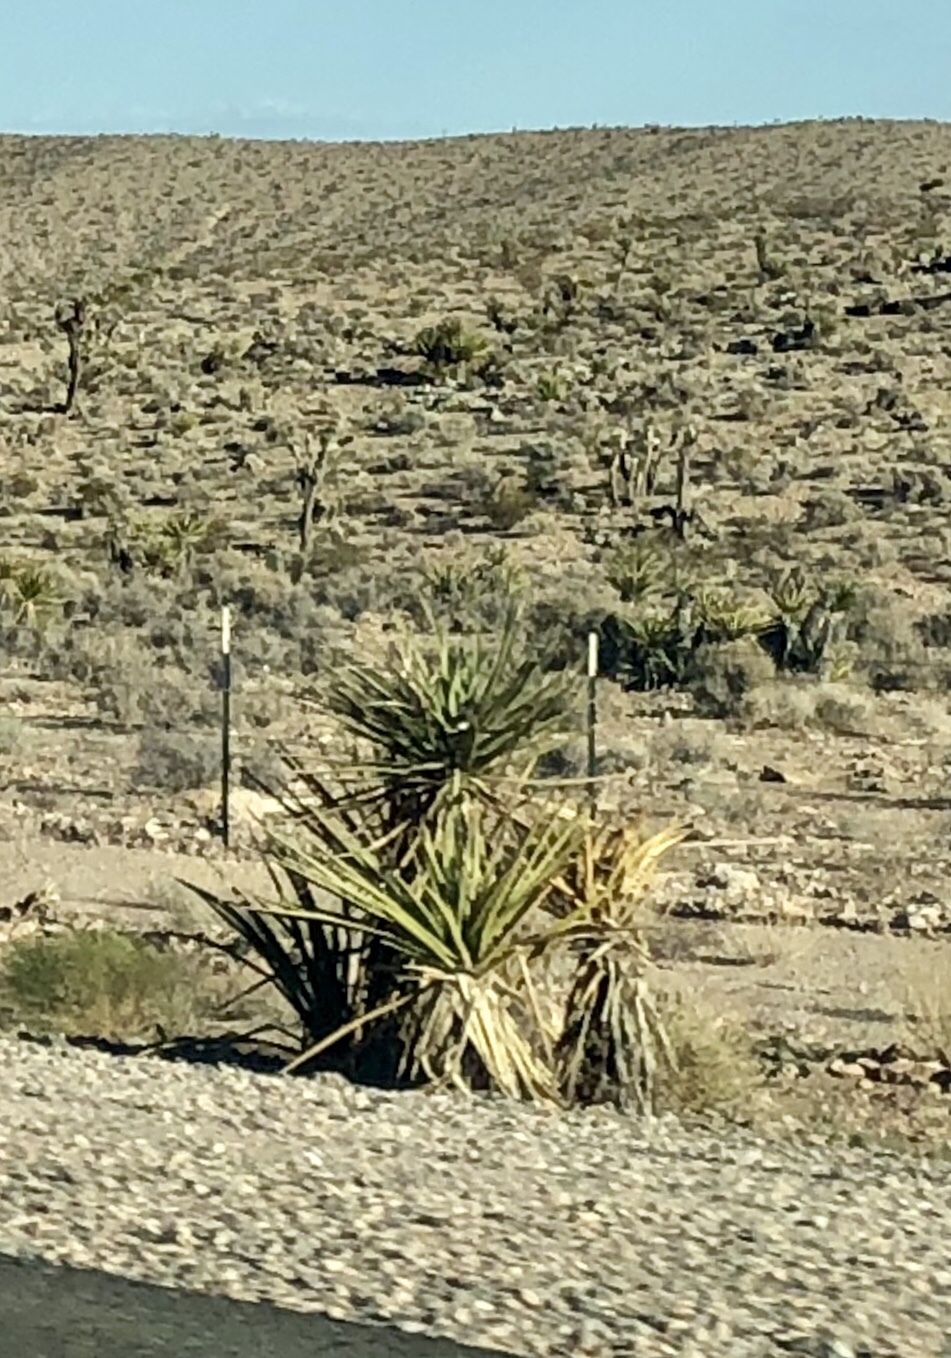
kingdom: Plantae
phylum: Tracheophyta
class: Liliopsida
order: Asparagales
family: Asparagaceae
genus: Yucca
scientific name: Yucca schidigera
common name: Mojave yucca
